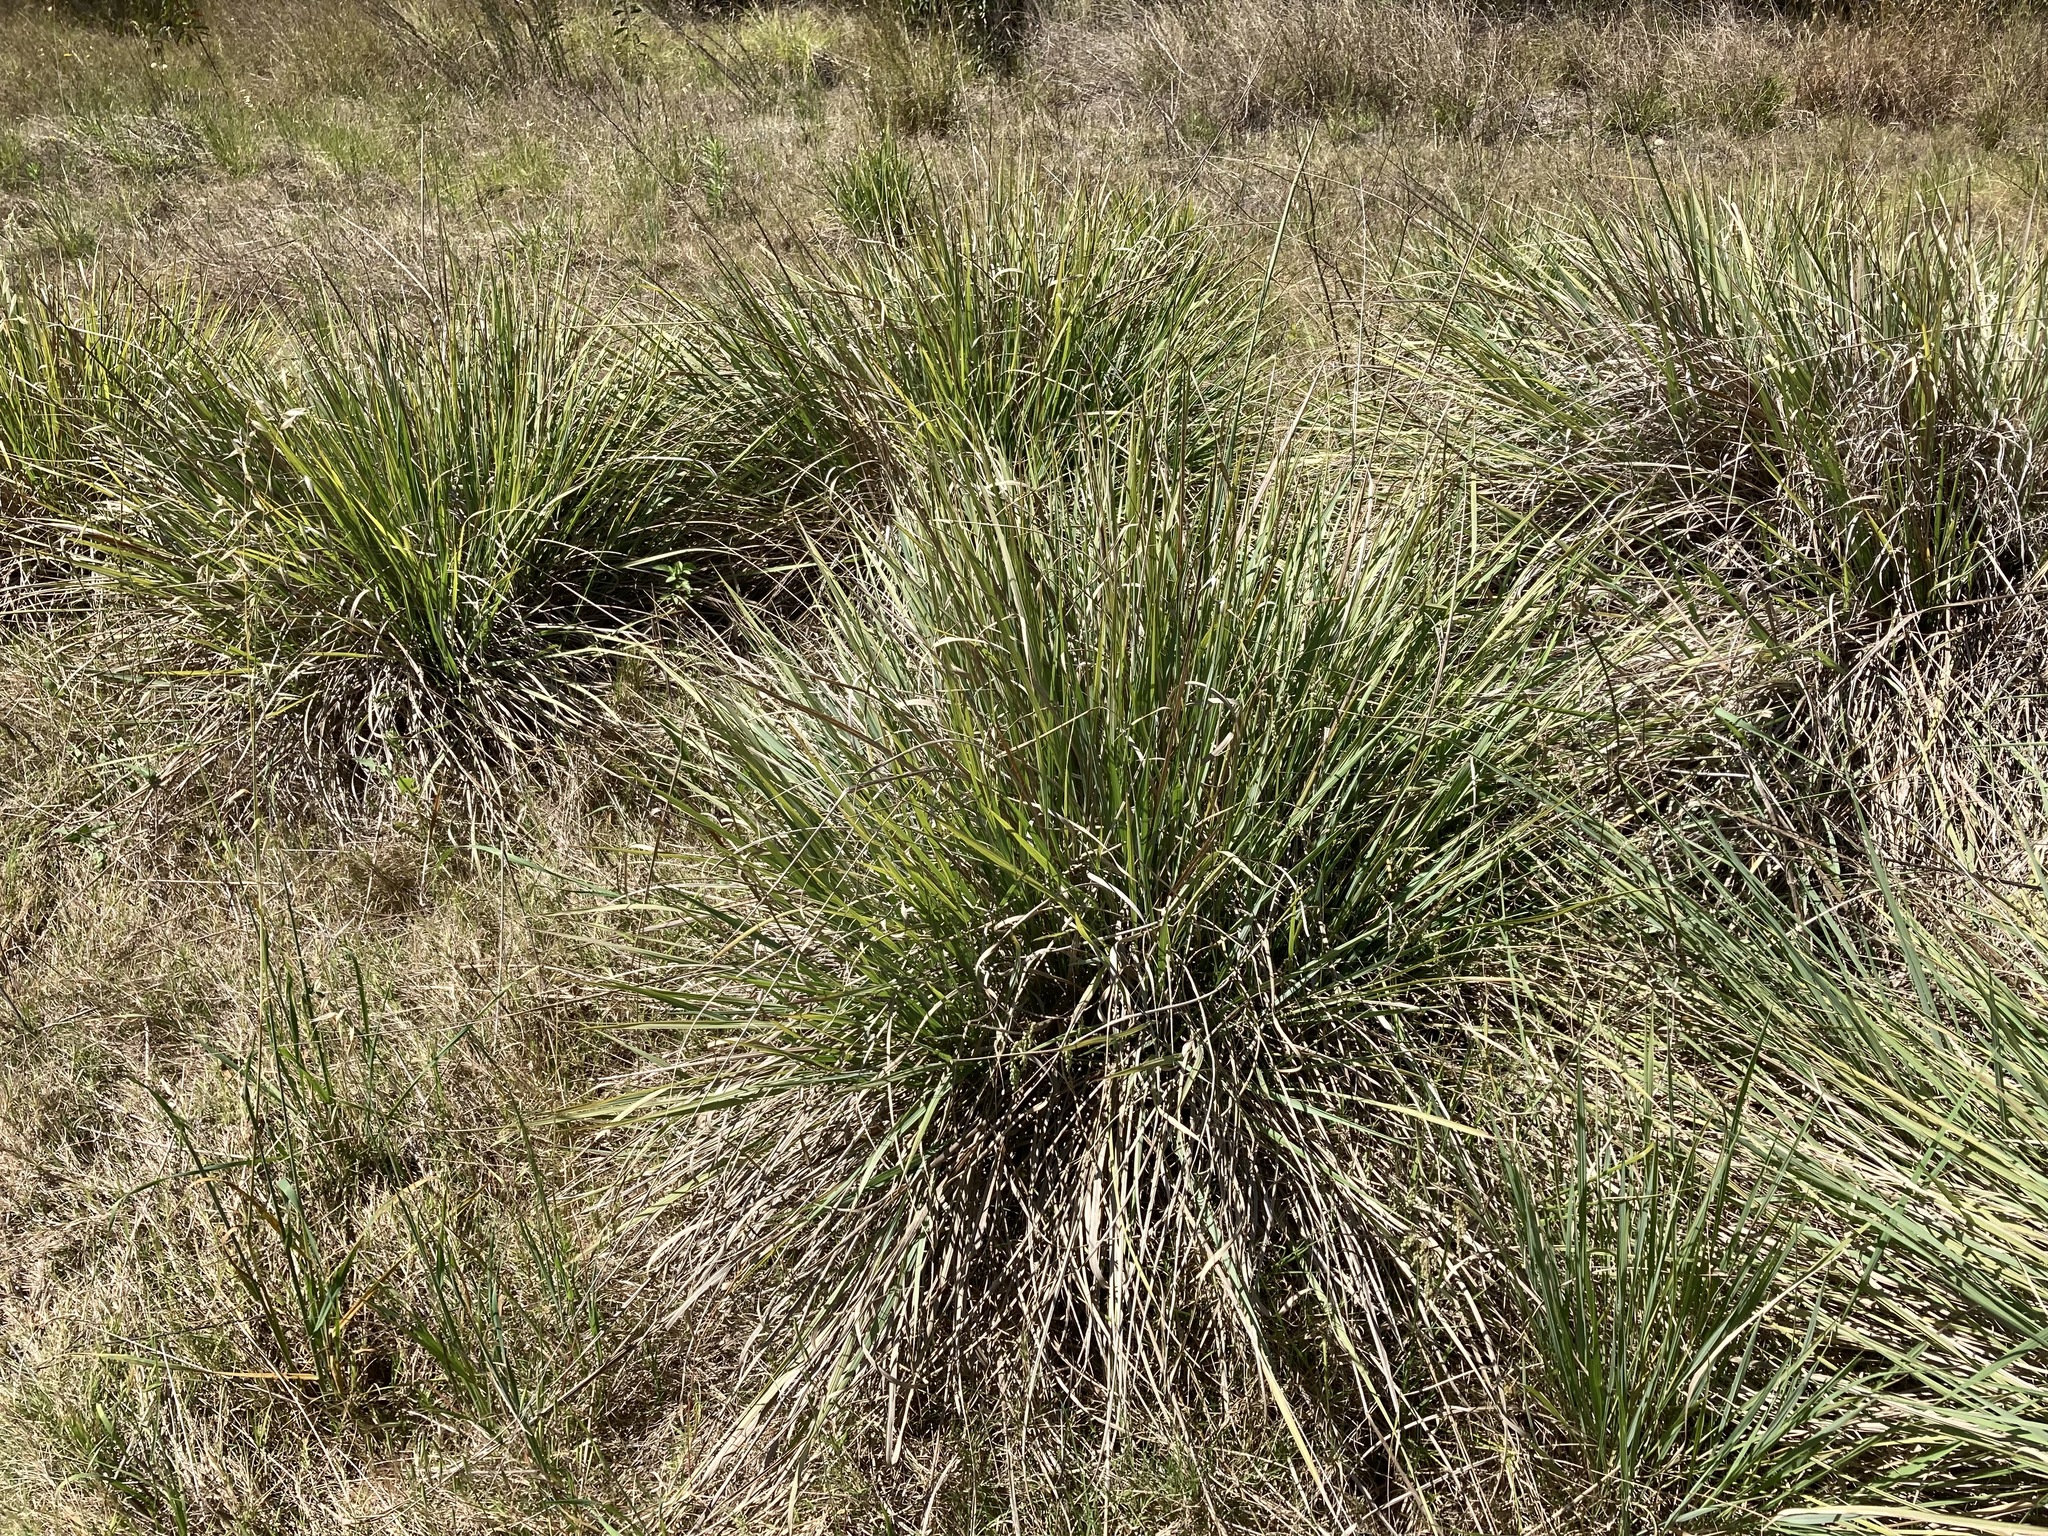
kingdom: Plantae
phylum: Tracheophyta
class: Liliopsida
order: Poales
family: Poaceae
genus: Paspalum
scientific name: Paspalum quadrifarium
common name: Tussock paspalum
